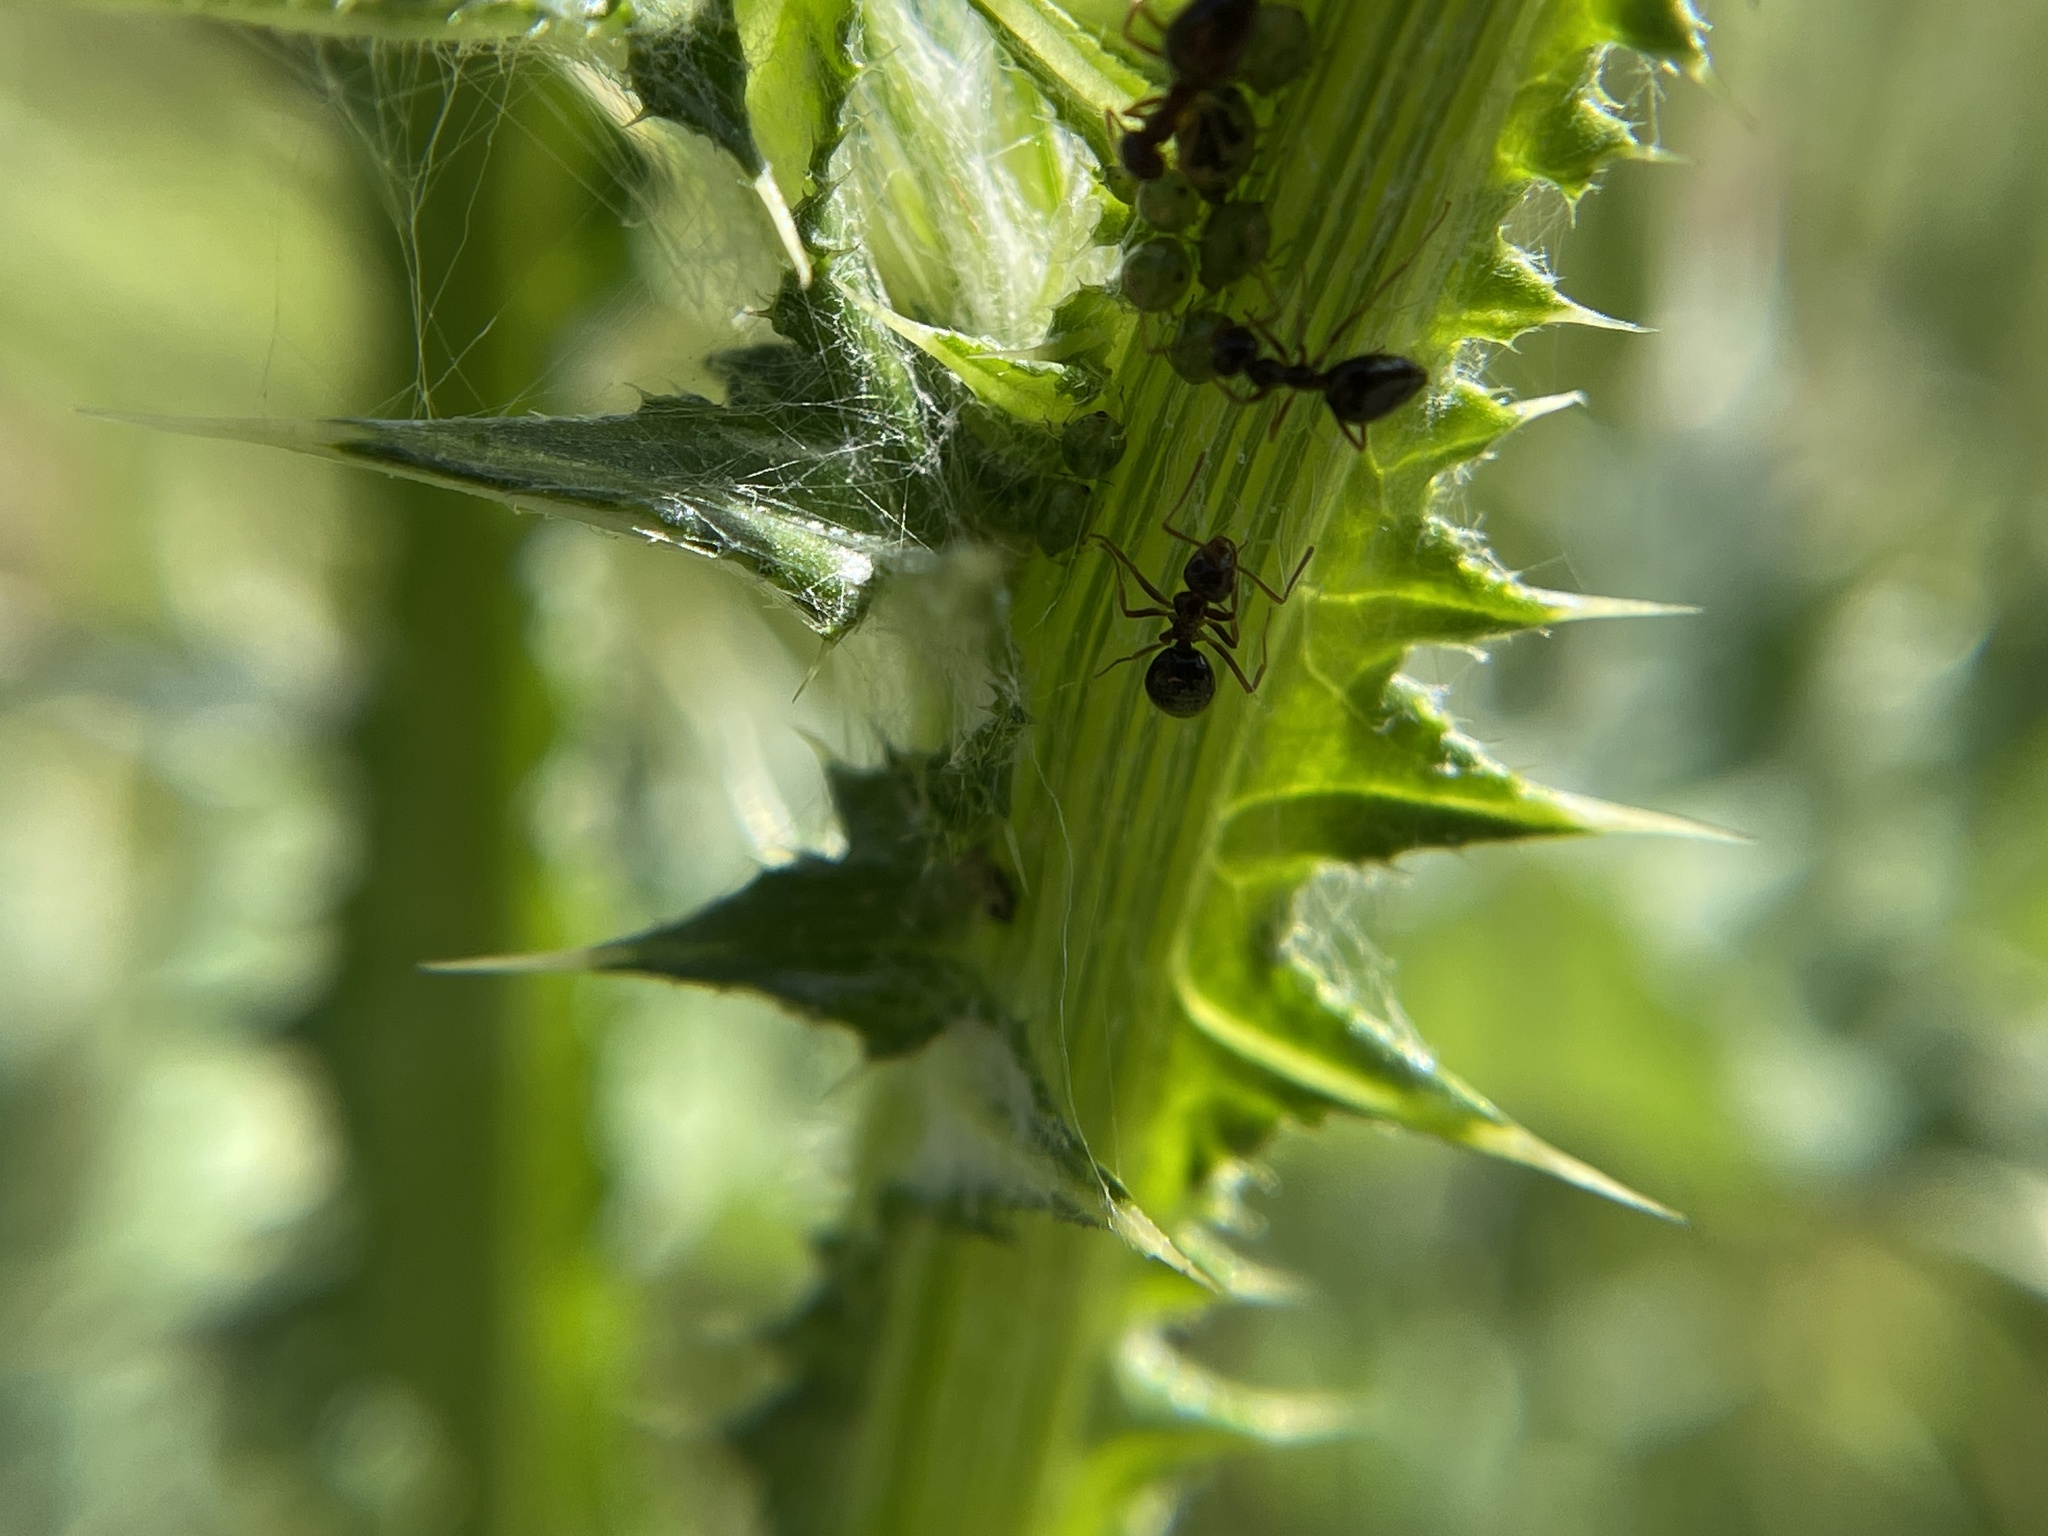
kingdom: Animalia
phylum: Arthropoda
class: Insecta
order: Hymenoptera
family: Formicidae
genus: Prenolepis
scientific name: Prenolepis imparis
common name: Small honey ant
